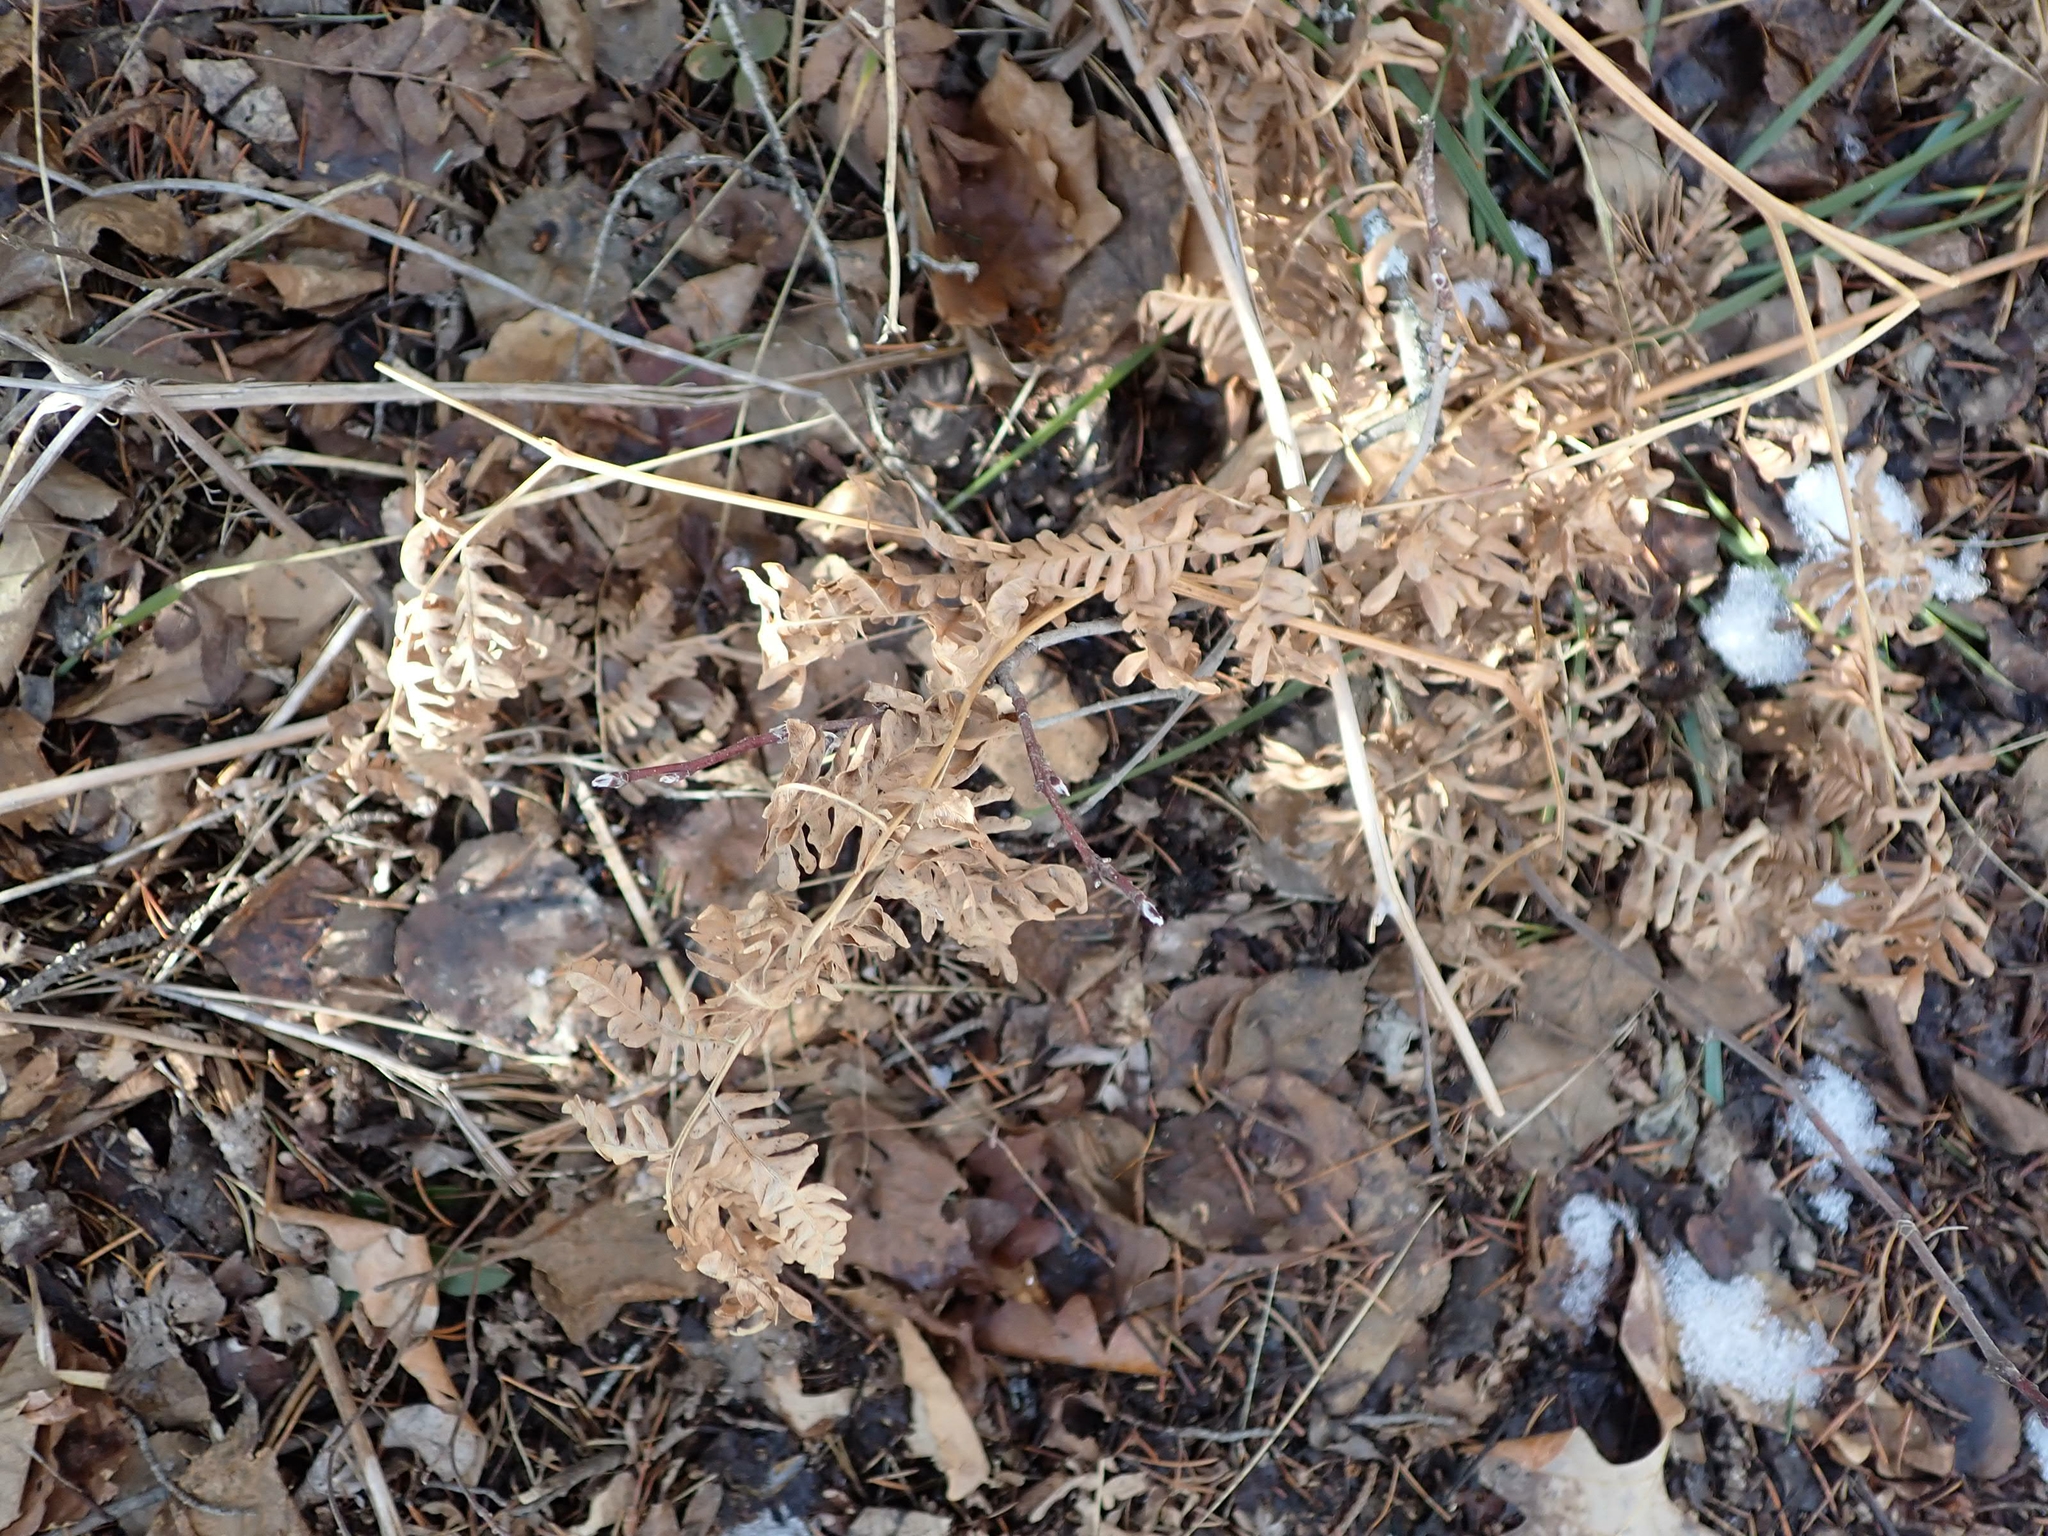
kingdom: Plantae
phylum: Tracheophyta
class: Polypodiopsida
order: Polypodiales
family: Dennstaedtiaceae
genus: Pteridium
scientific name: Pteridium aquilinum
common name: Bracken
